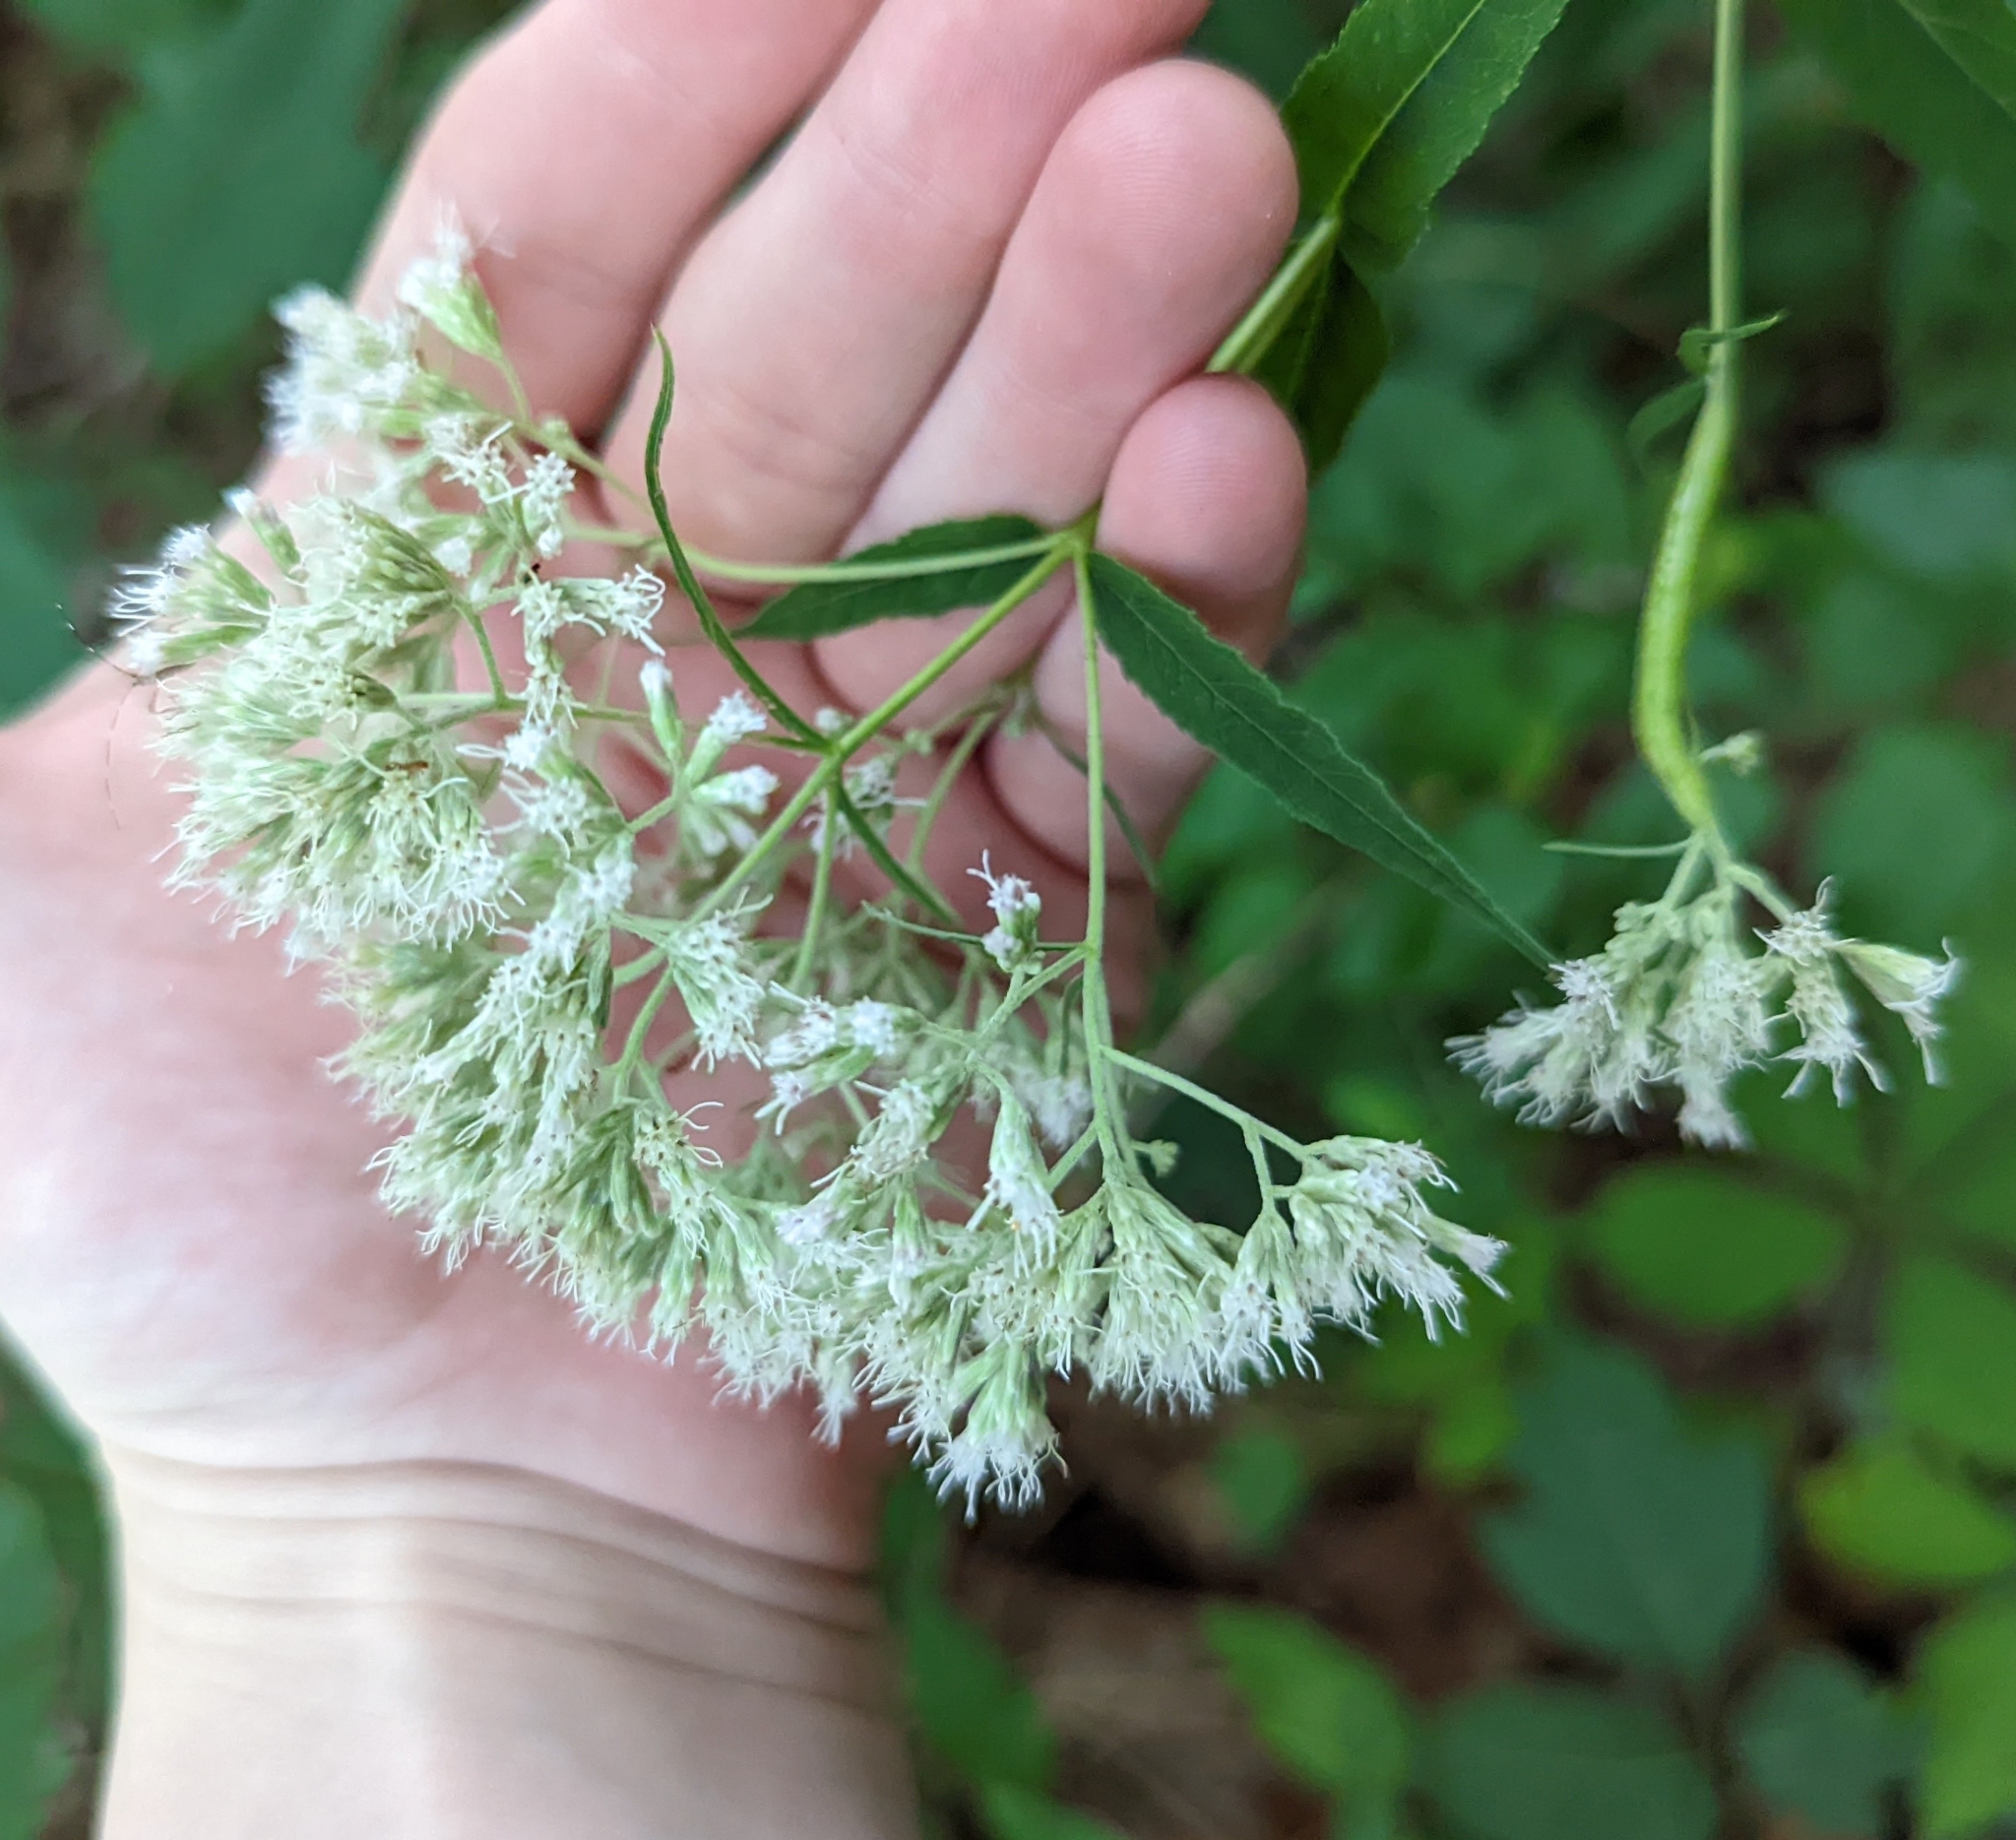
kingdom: Plantae
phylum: Tracheophyta
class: Magnoliopsida
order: Asterales
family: Asteraceae
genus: Eupatorium
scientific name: Eupatorium sessilifolium
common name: Upland boneset
